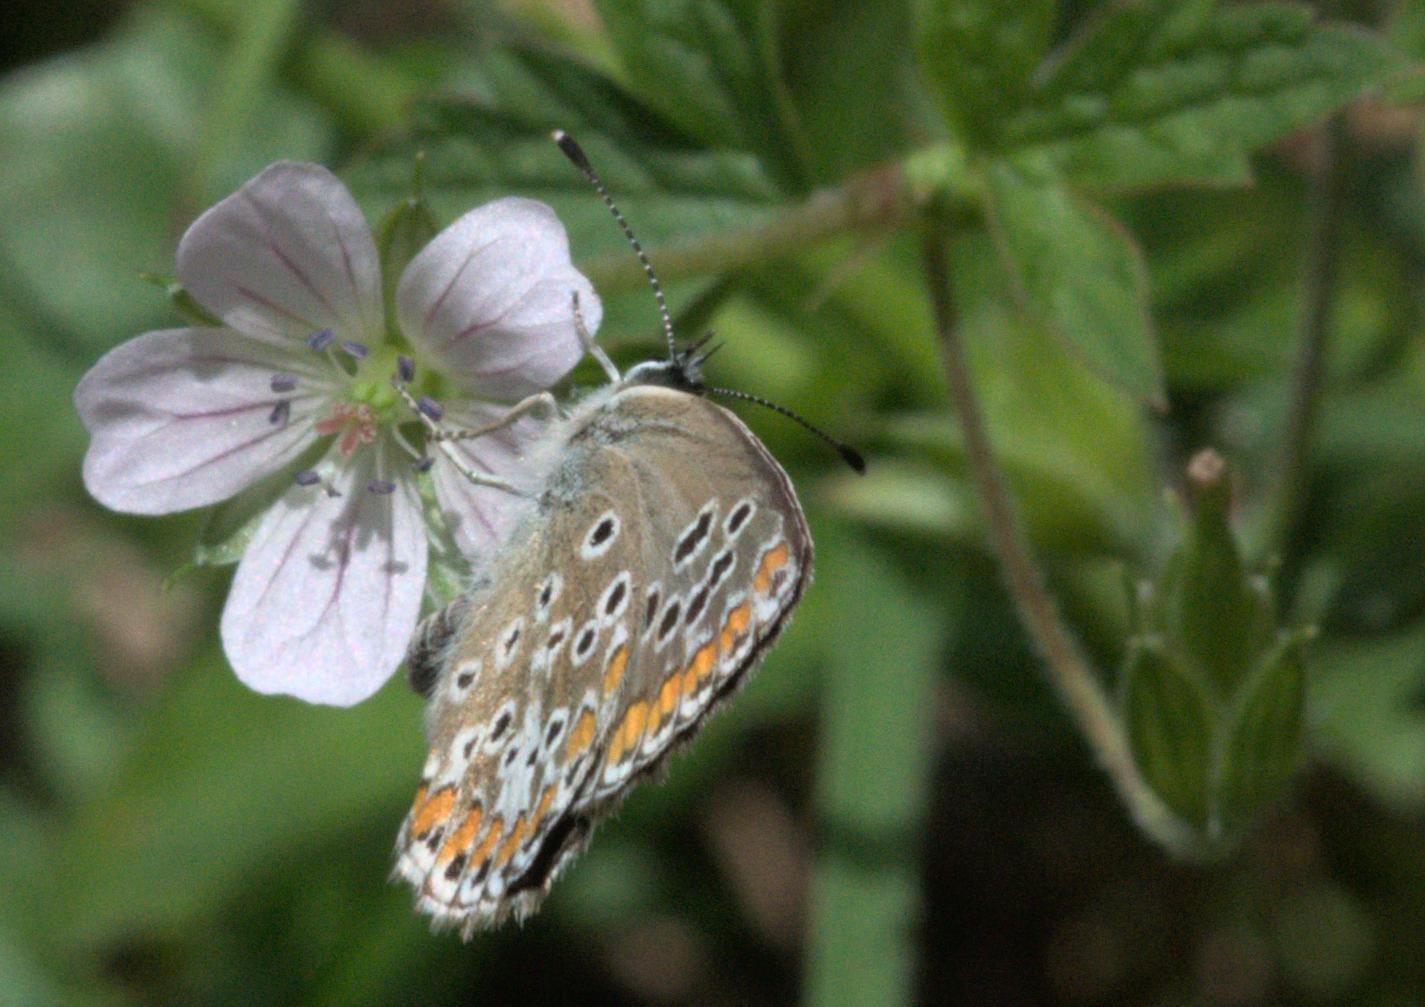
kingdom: Animalia
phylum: Arthropoda
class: Insecta
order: Lepidoptera
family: Lycaenidae
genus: Aricia
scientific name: Aricia agestis
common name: Brown argus
